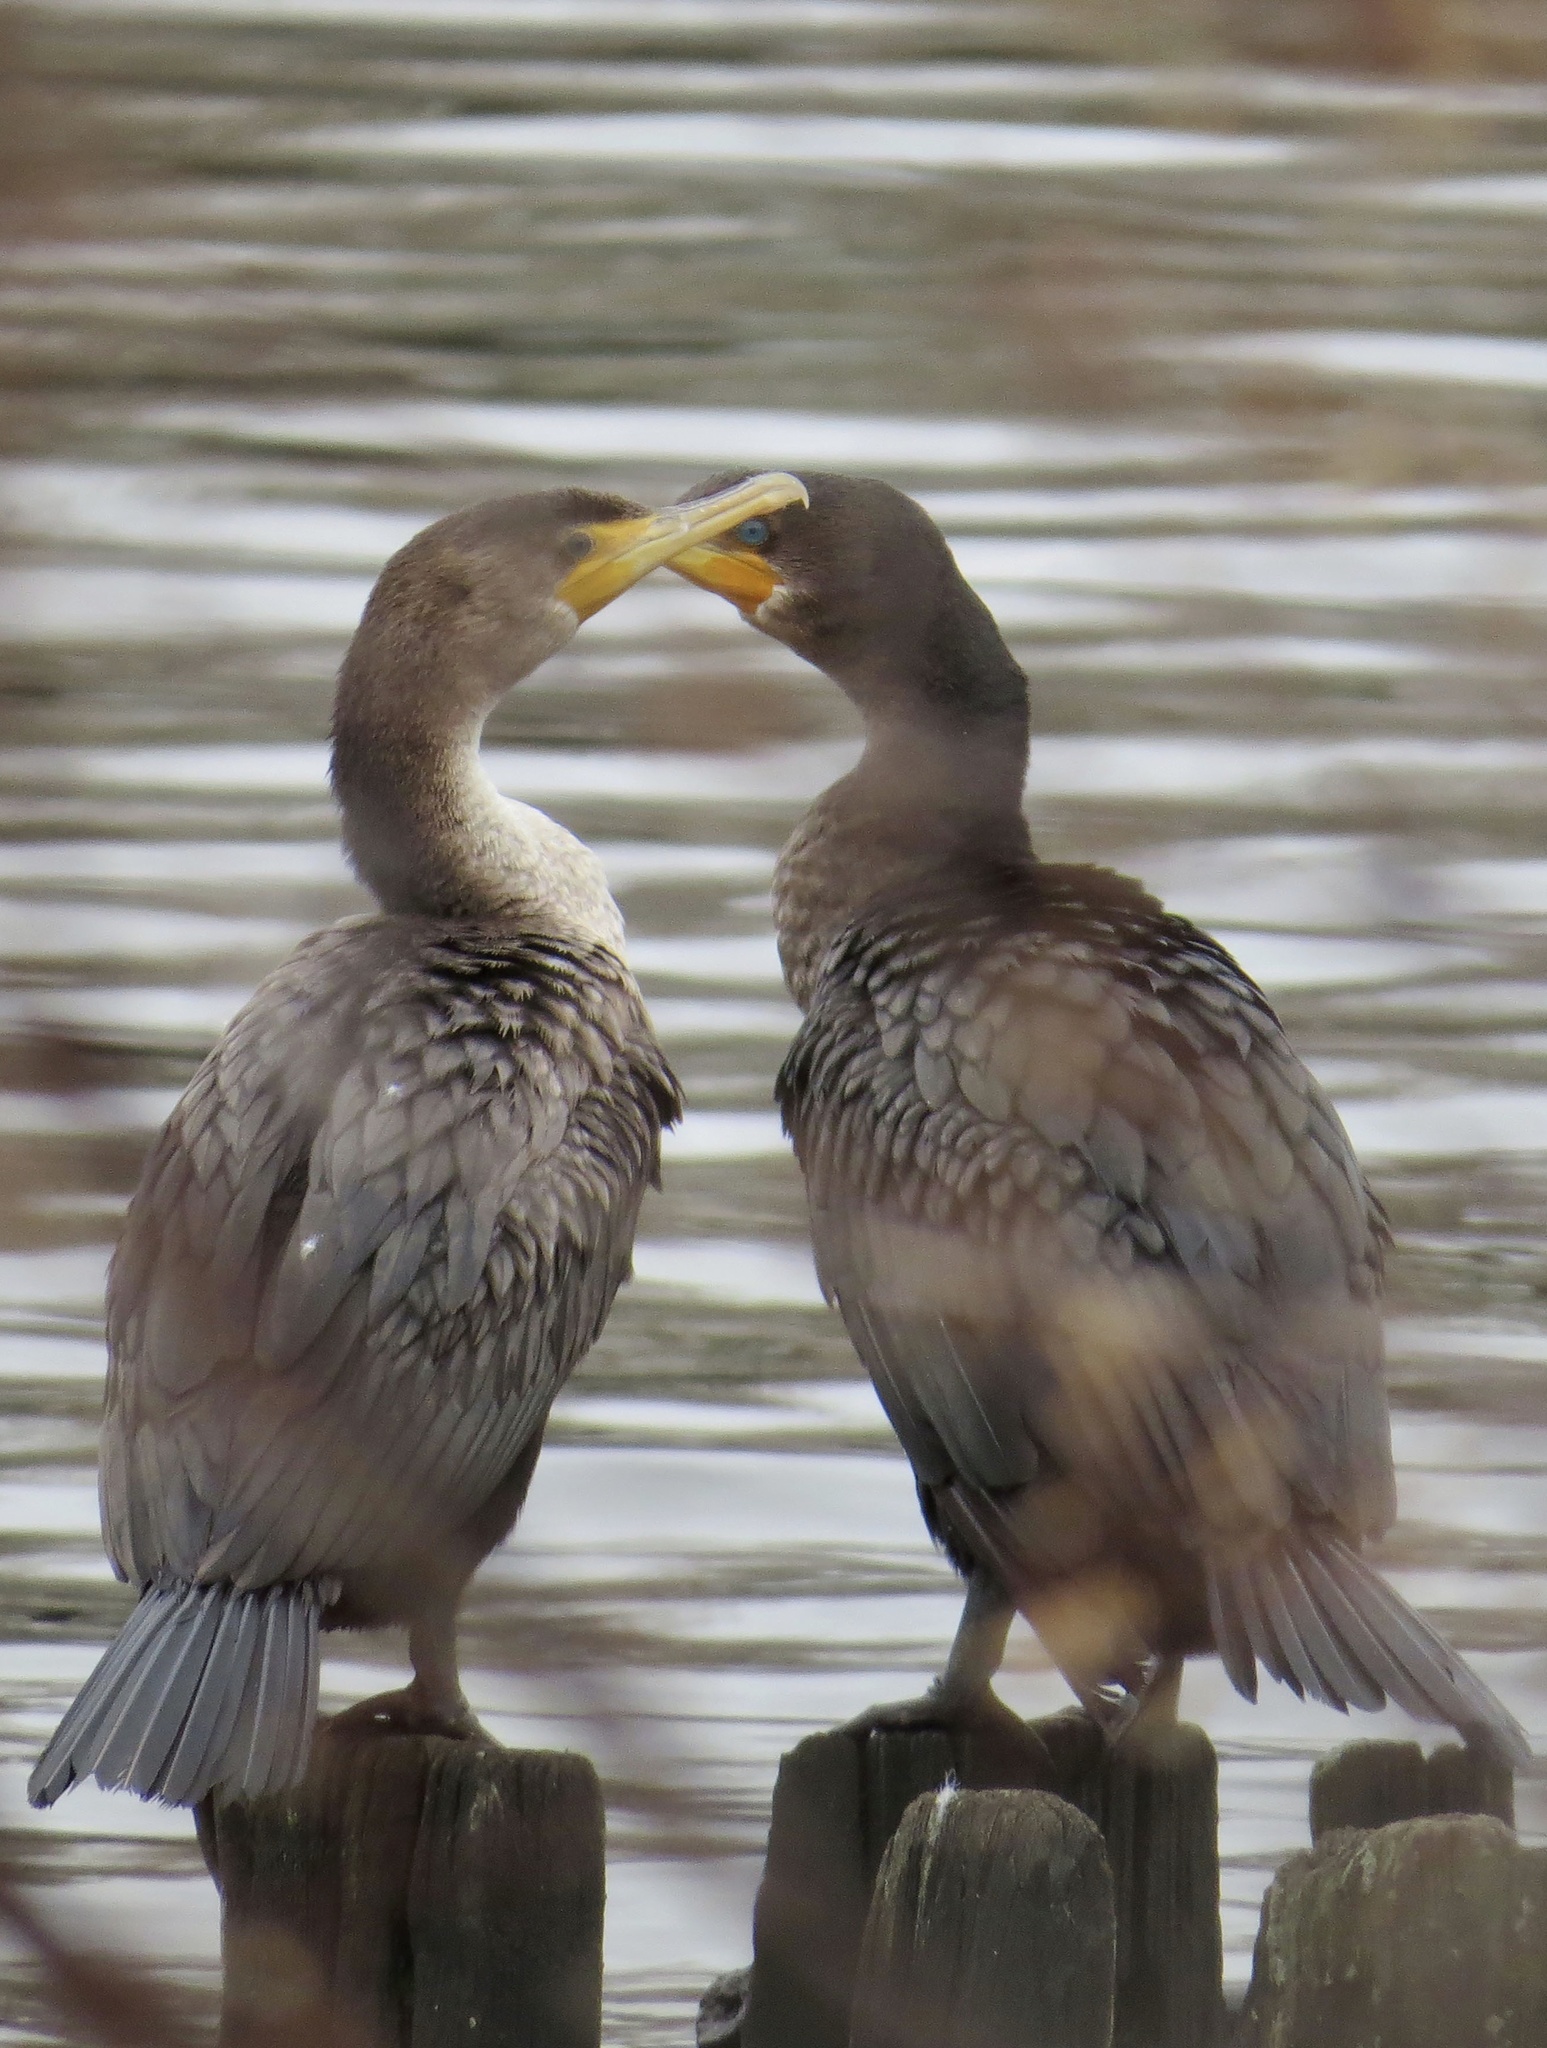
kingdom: Animalia
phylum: Chordata
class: Aves
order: Suliformes
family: Phalacrocoracidae
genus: Phalacrocorax
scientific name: Phalacrocorax auritus
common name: Double-crested cormorant
